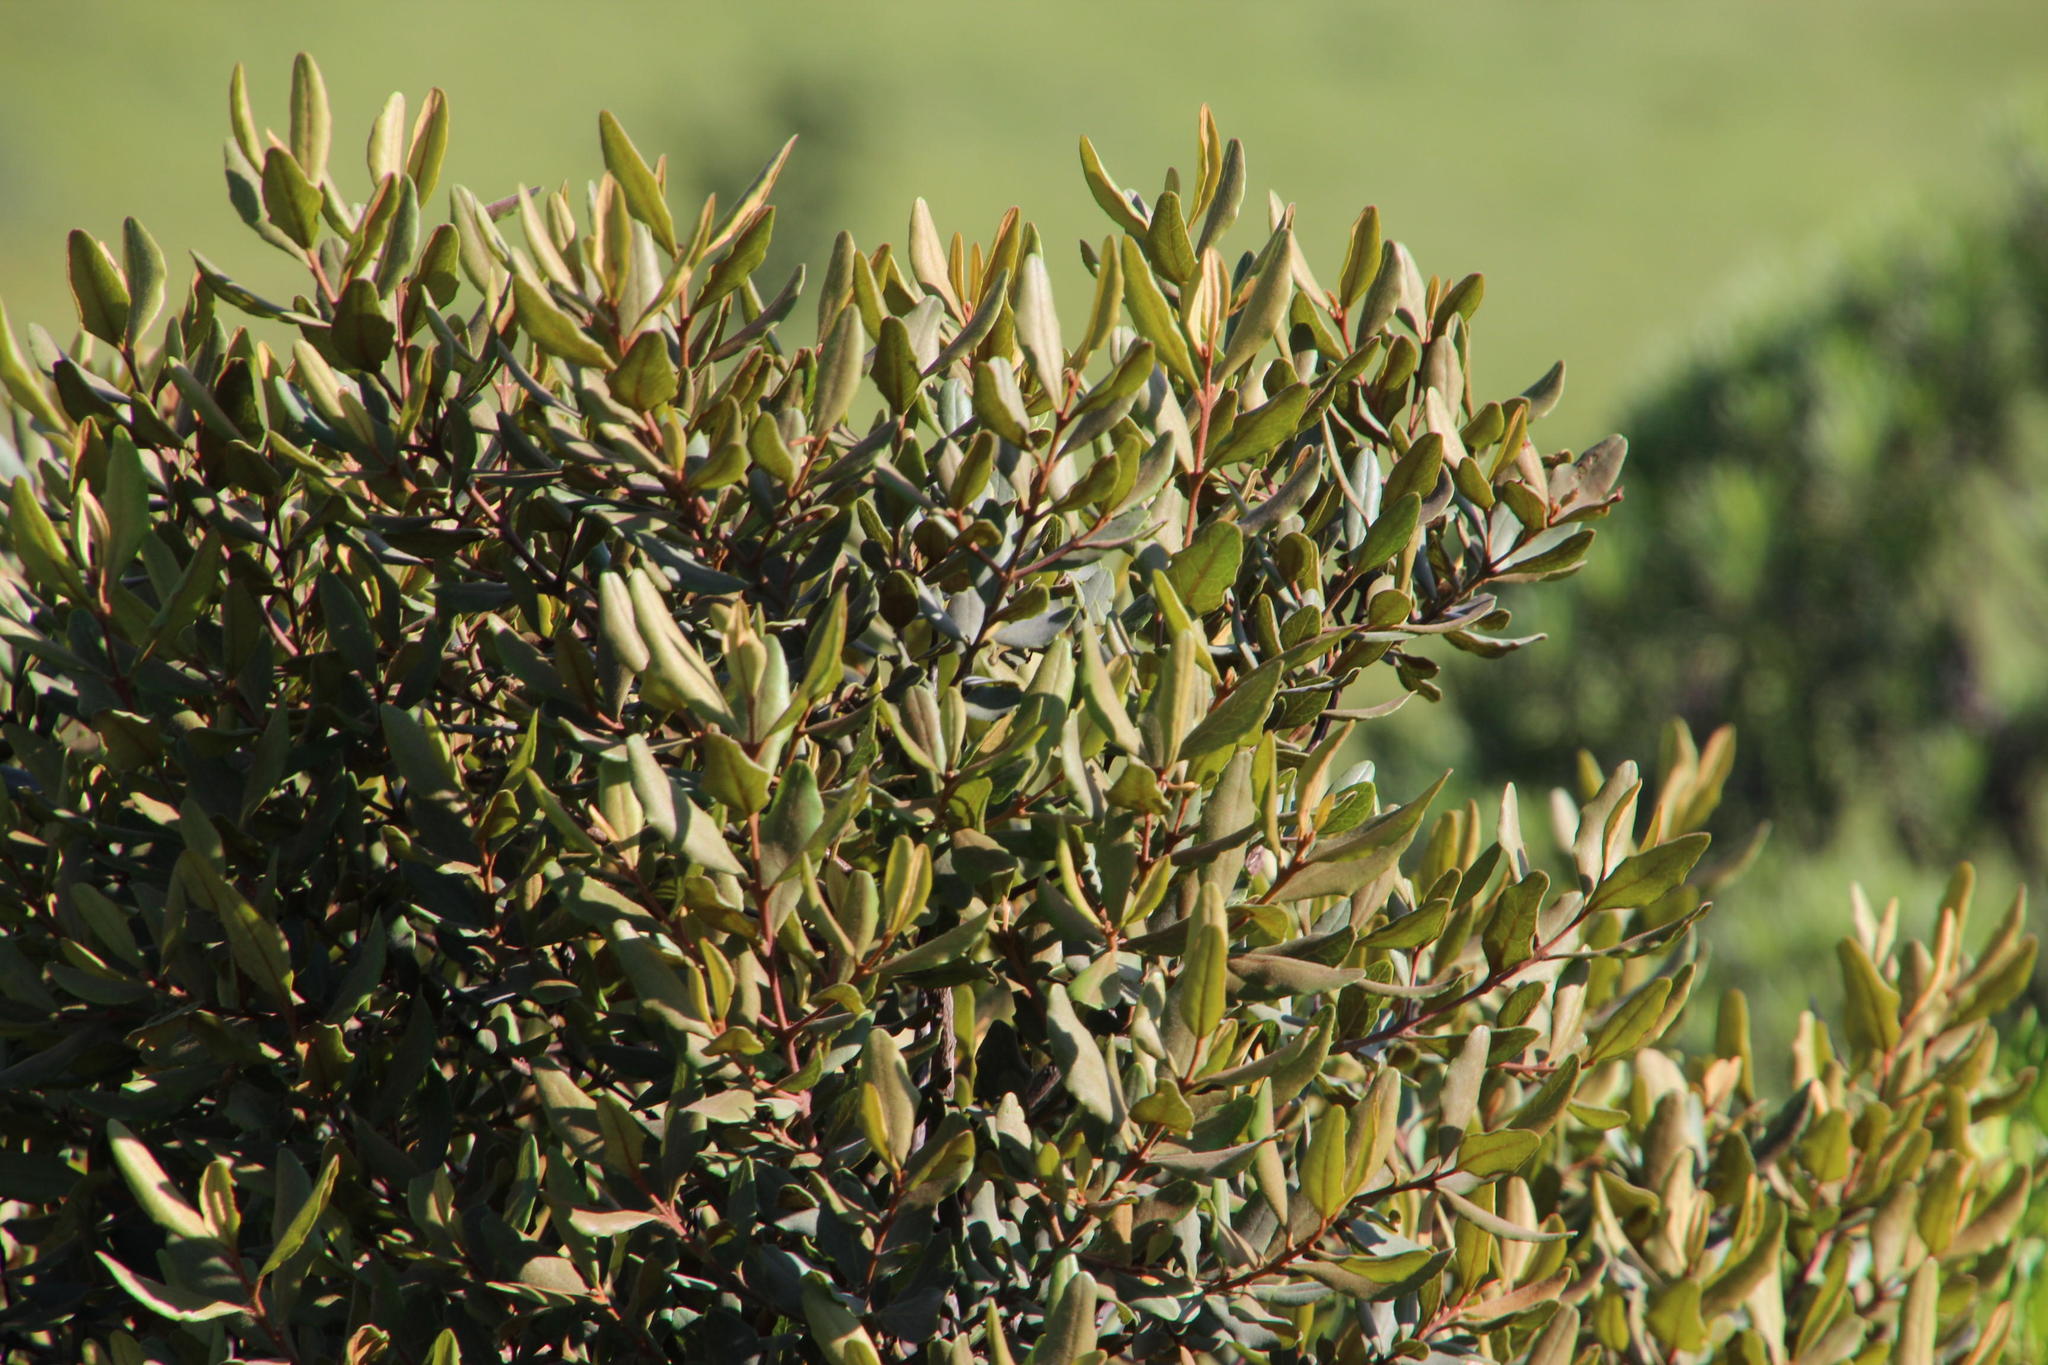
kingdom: Plantae
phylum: Tracheophyta
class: Magnoliopsida
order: Ericales
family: Ebenaceae
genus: Euclea
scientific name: Euclea crispa
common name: Blue guarri
